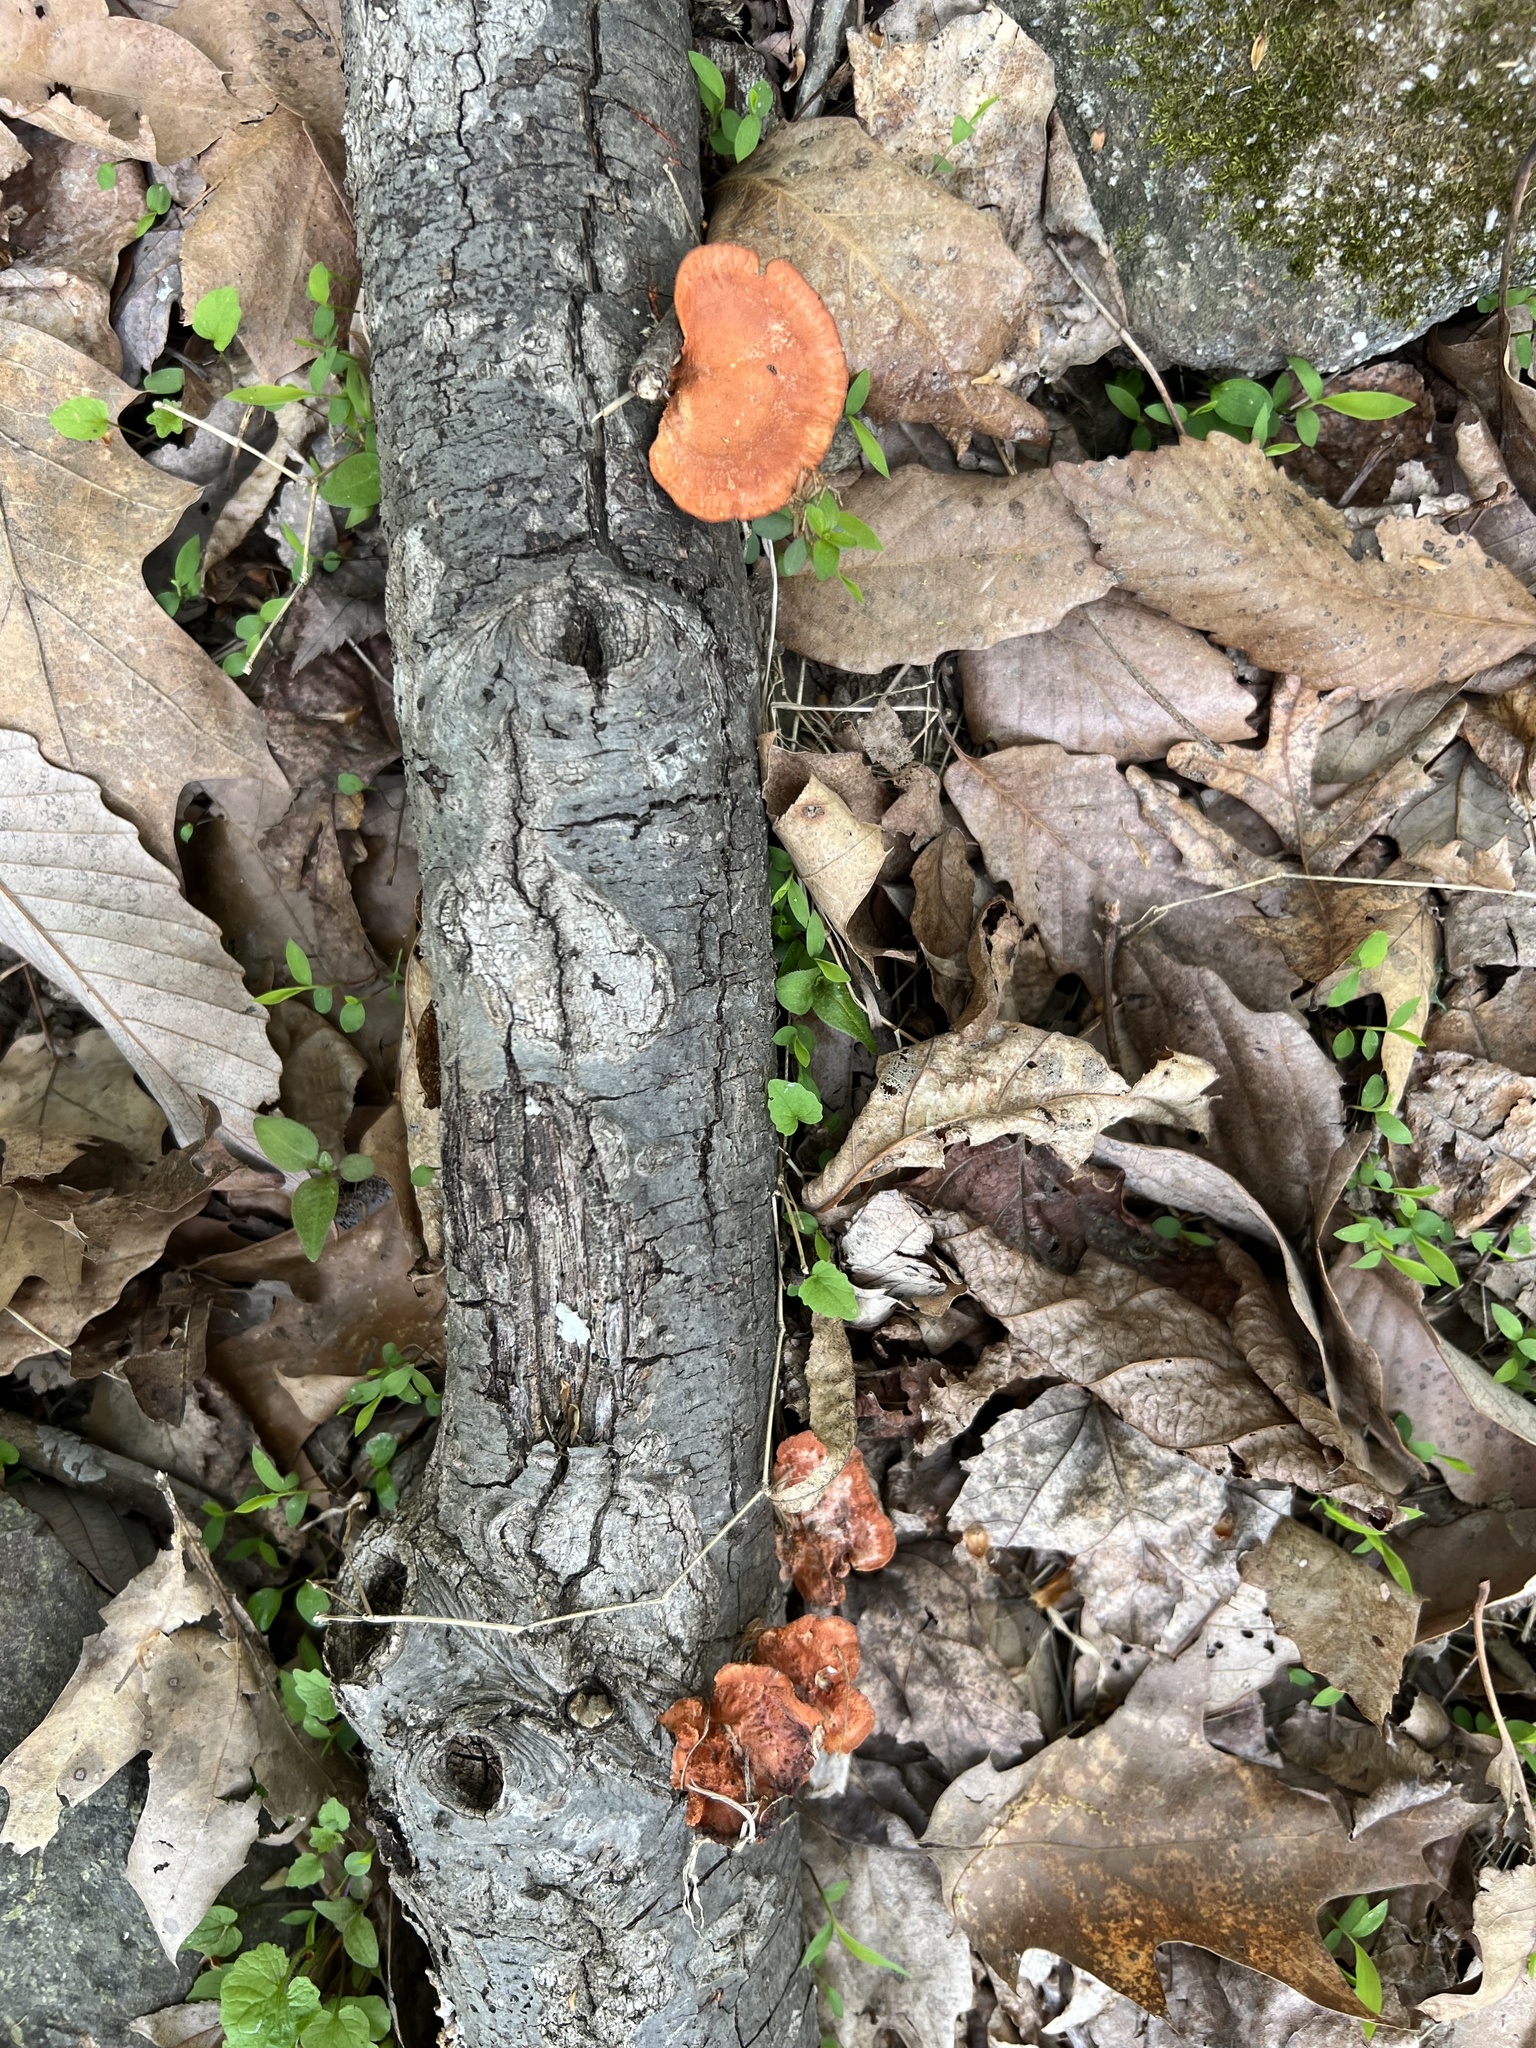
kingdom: Fungi
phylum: Basidiomycota
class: Agaricomycetes
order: Polyporales
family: Polyporaceae
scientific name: Polyporaceae
